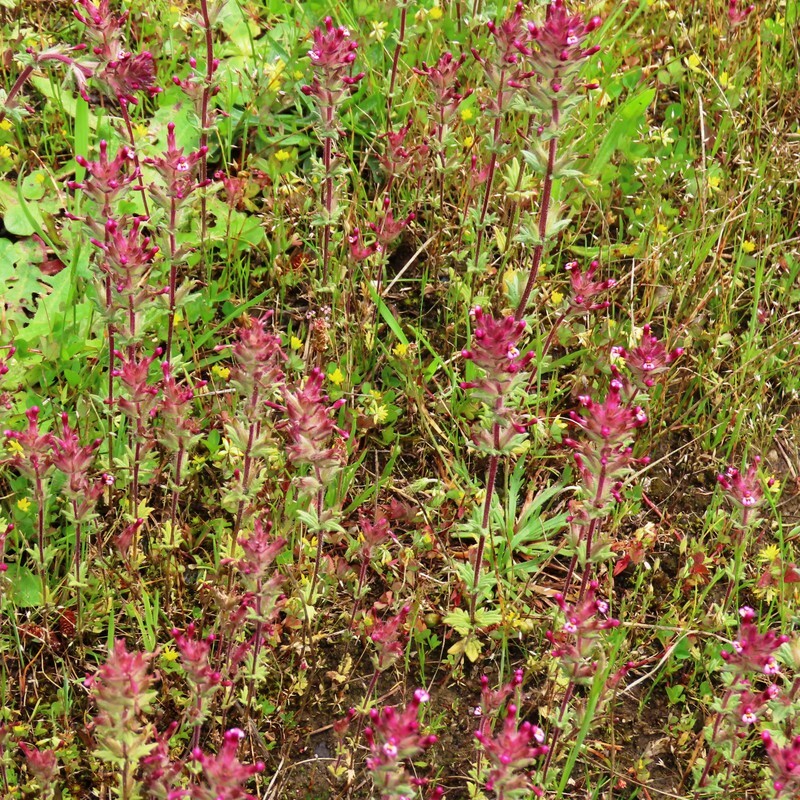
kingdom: Plantae
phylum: Tracheophyta
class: Magnoliopsida
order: Lamiales
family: Orobanchaceae
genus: Parentucellia
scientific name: Parentucellia latifolia
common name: Broadleaf glandweed
